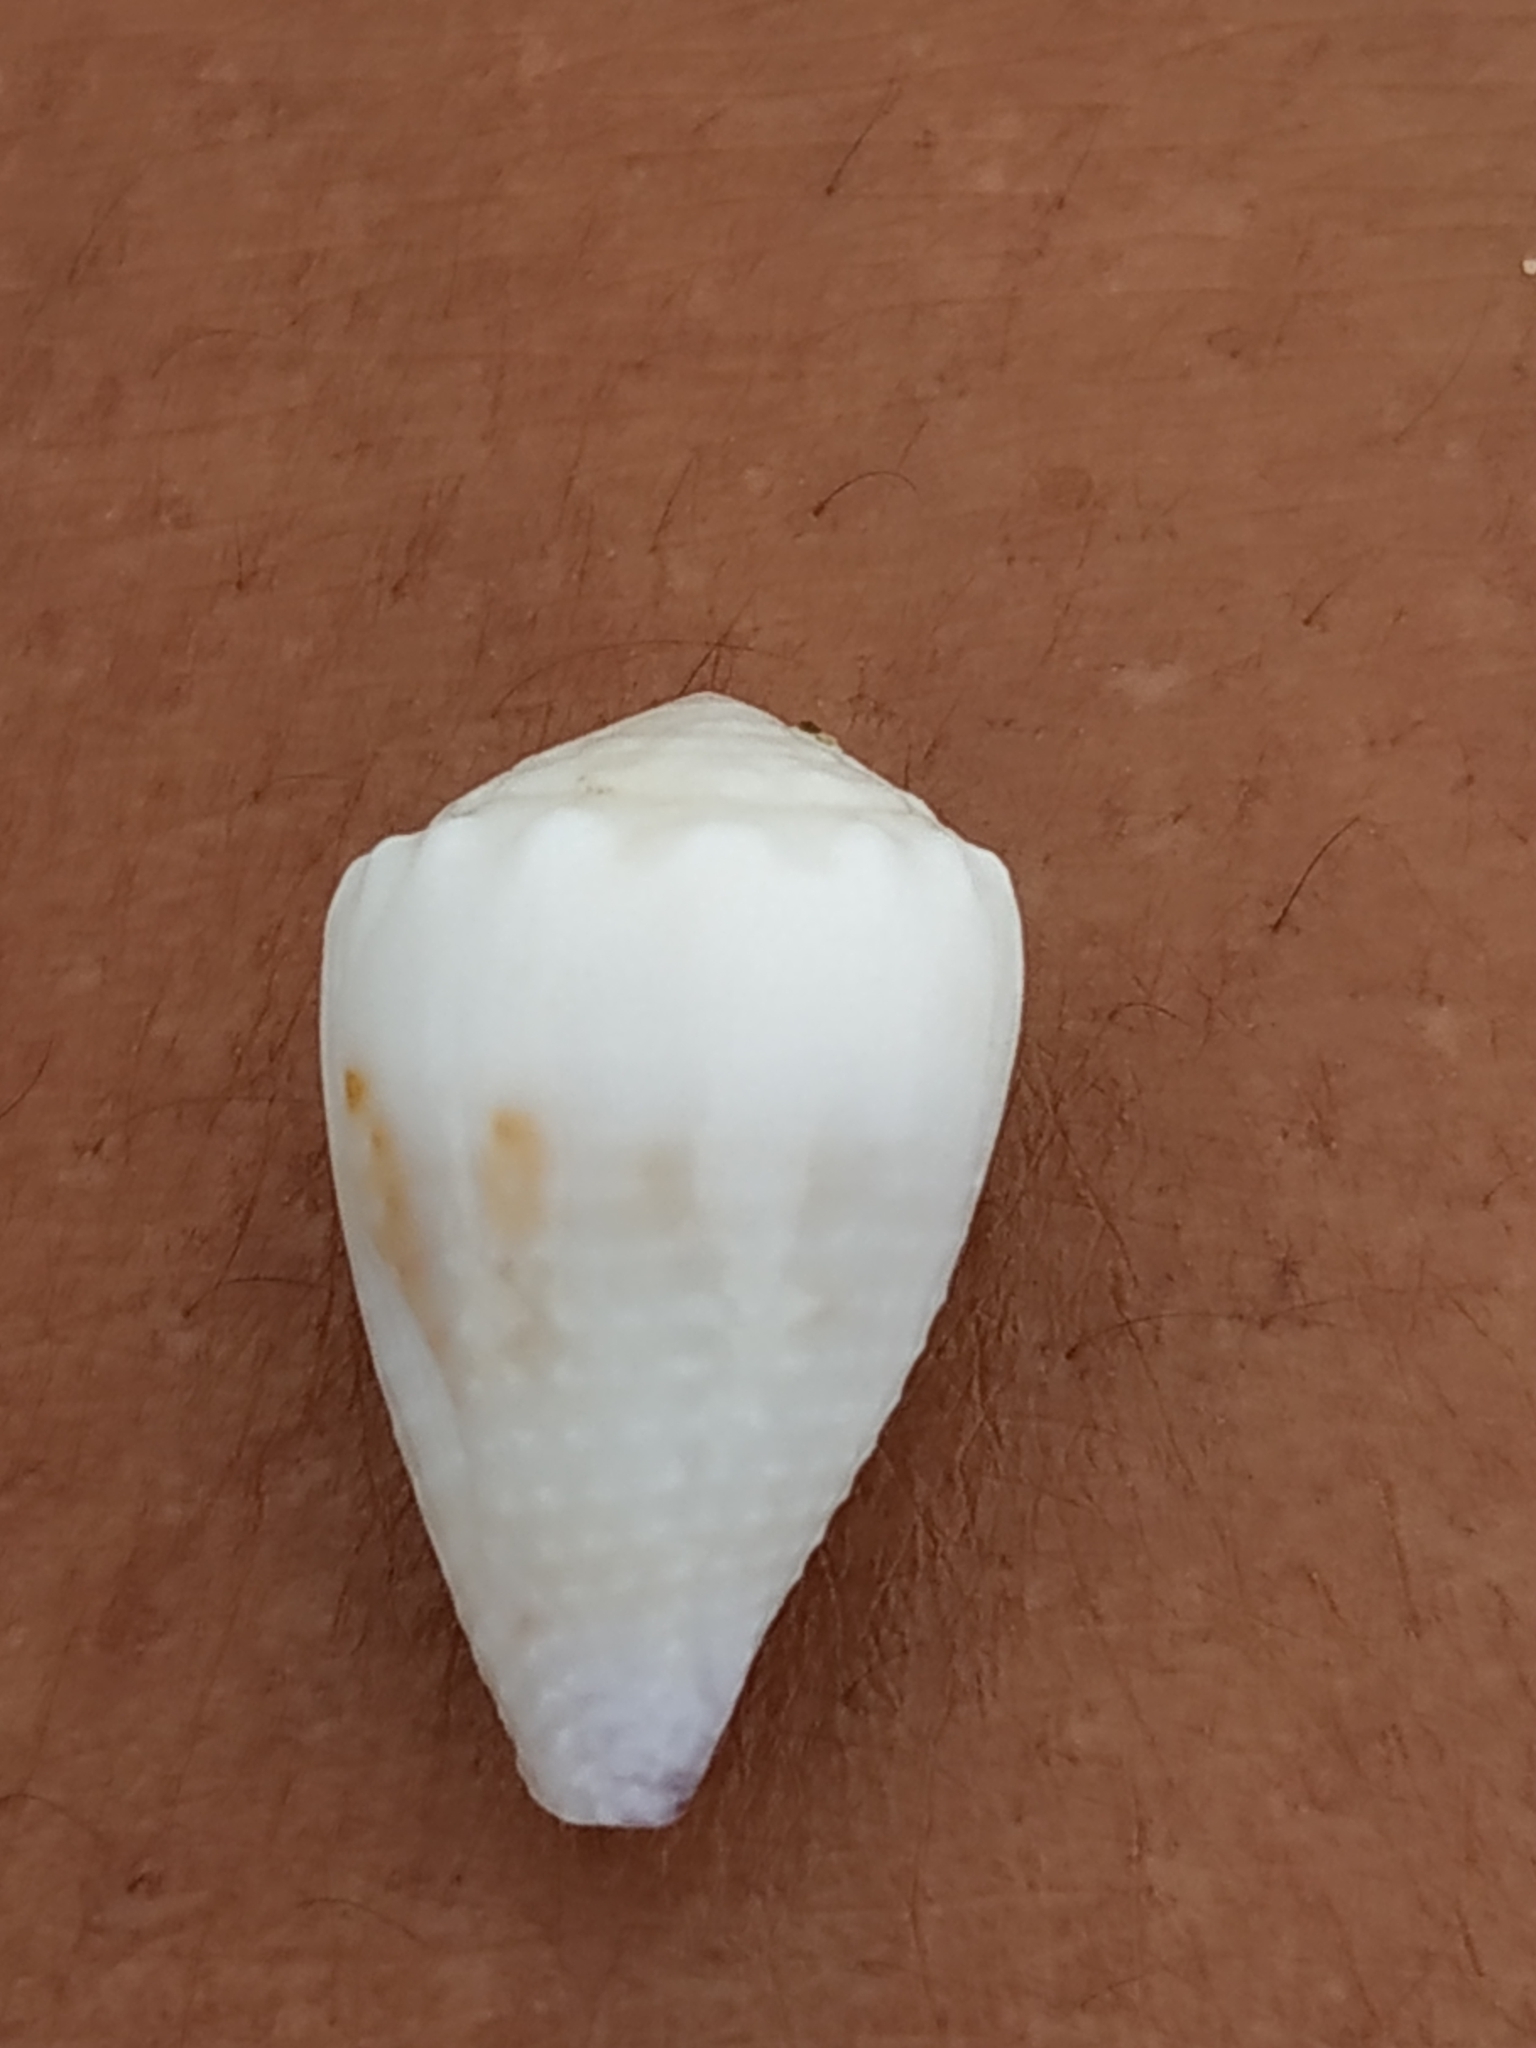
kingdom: Animalia
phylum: Mollusca
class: Gastropoda
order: Neogastropoda
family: Conidae
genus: Conus
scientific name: Conus sponsalis
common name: Sponsal cone
